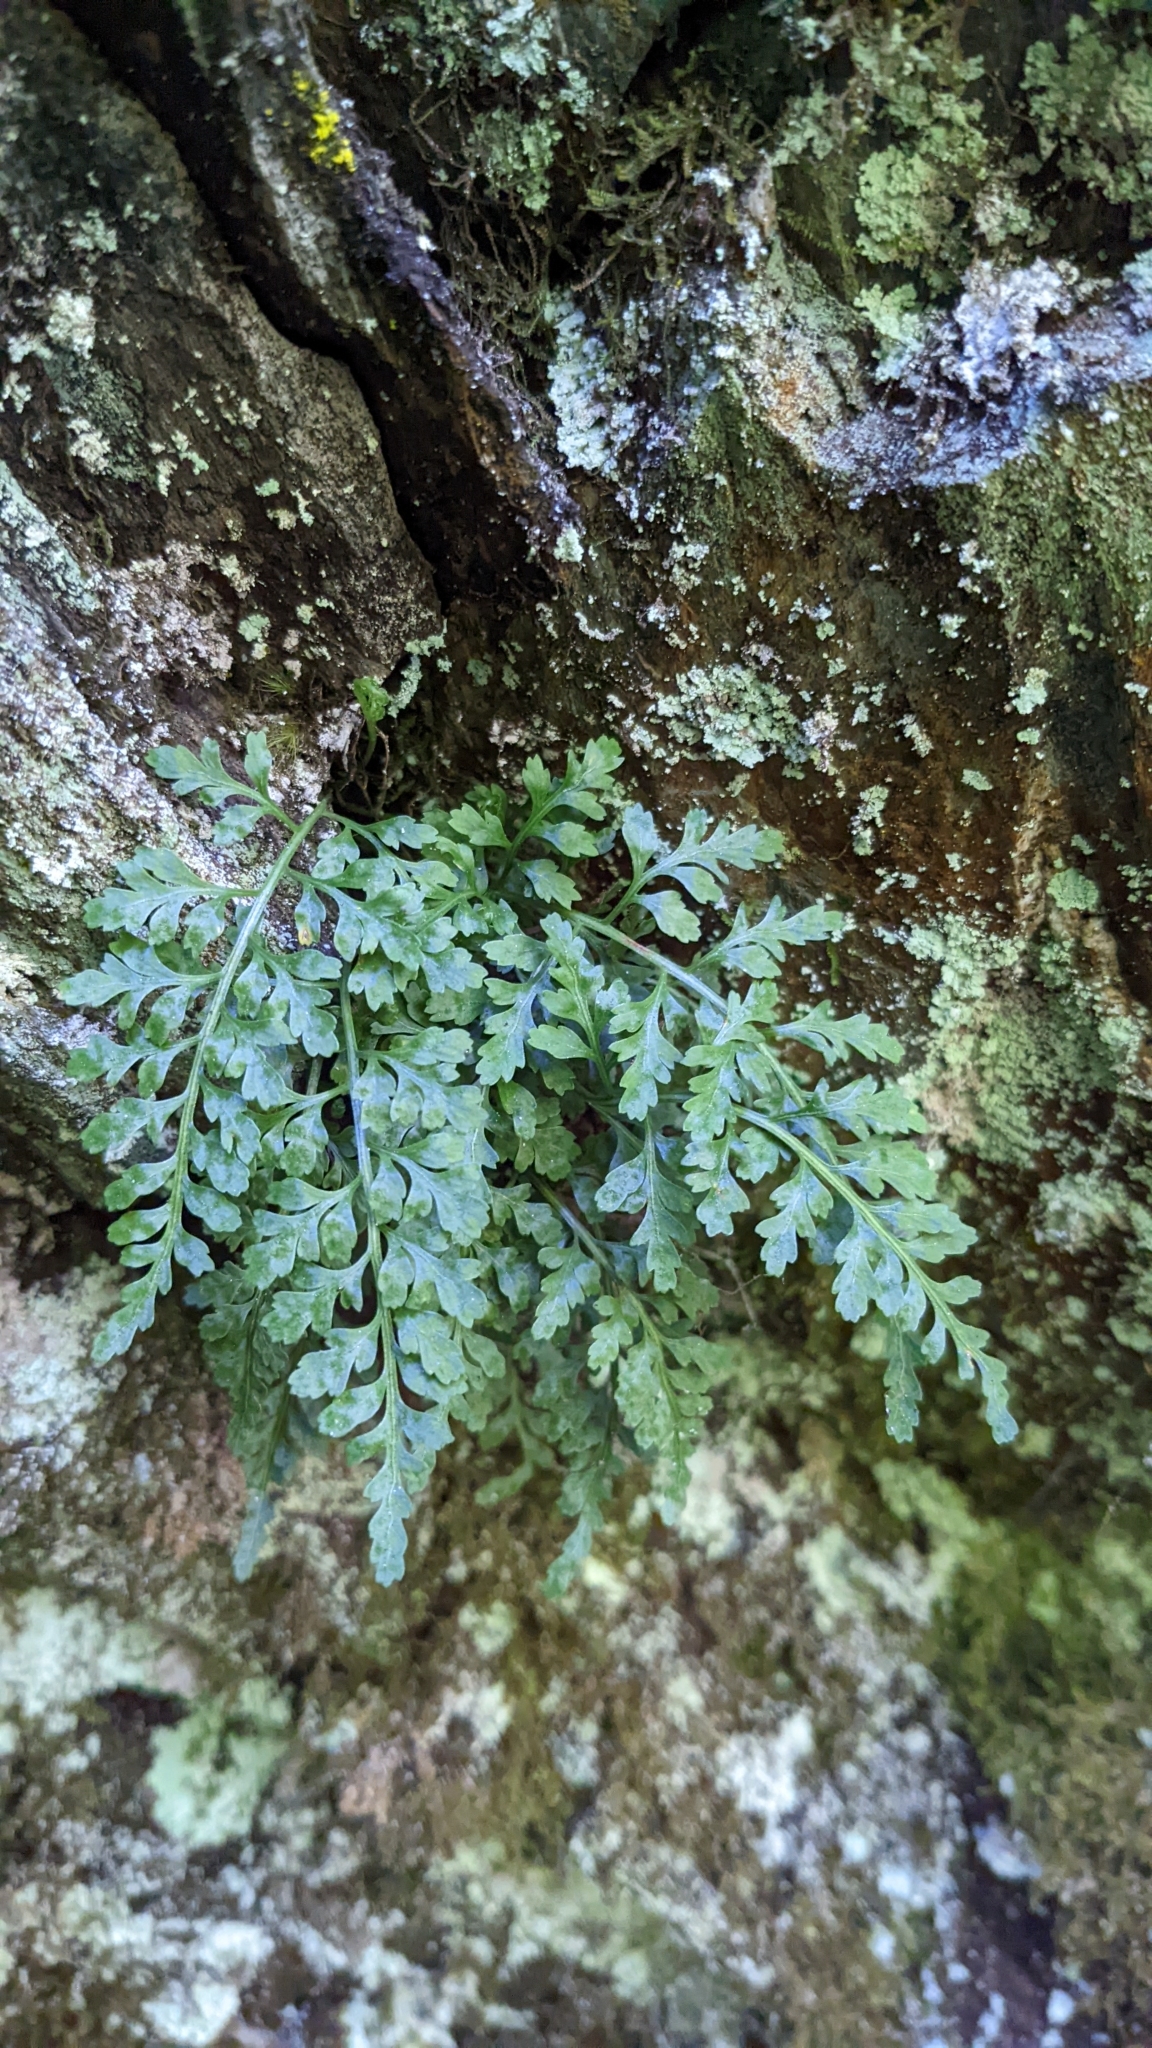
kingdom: Plantae
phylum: Tracheophyta
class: Polypodiopsida
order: Polypodiales
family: Aspleniaceae
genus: Asplenium
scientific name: Asplenium montanum
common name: Mountain spleenwort
